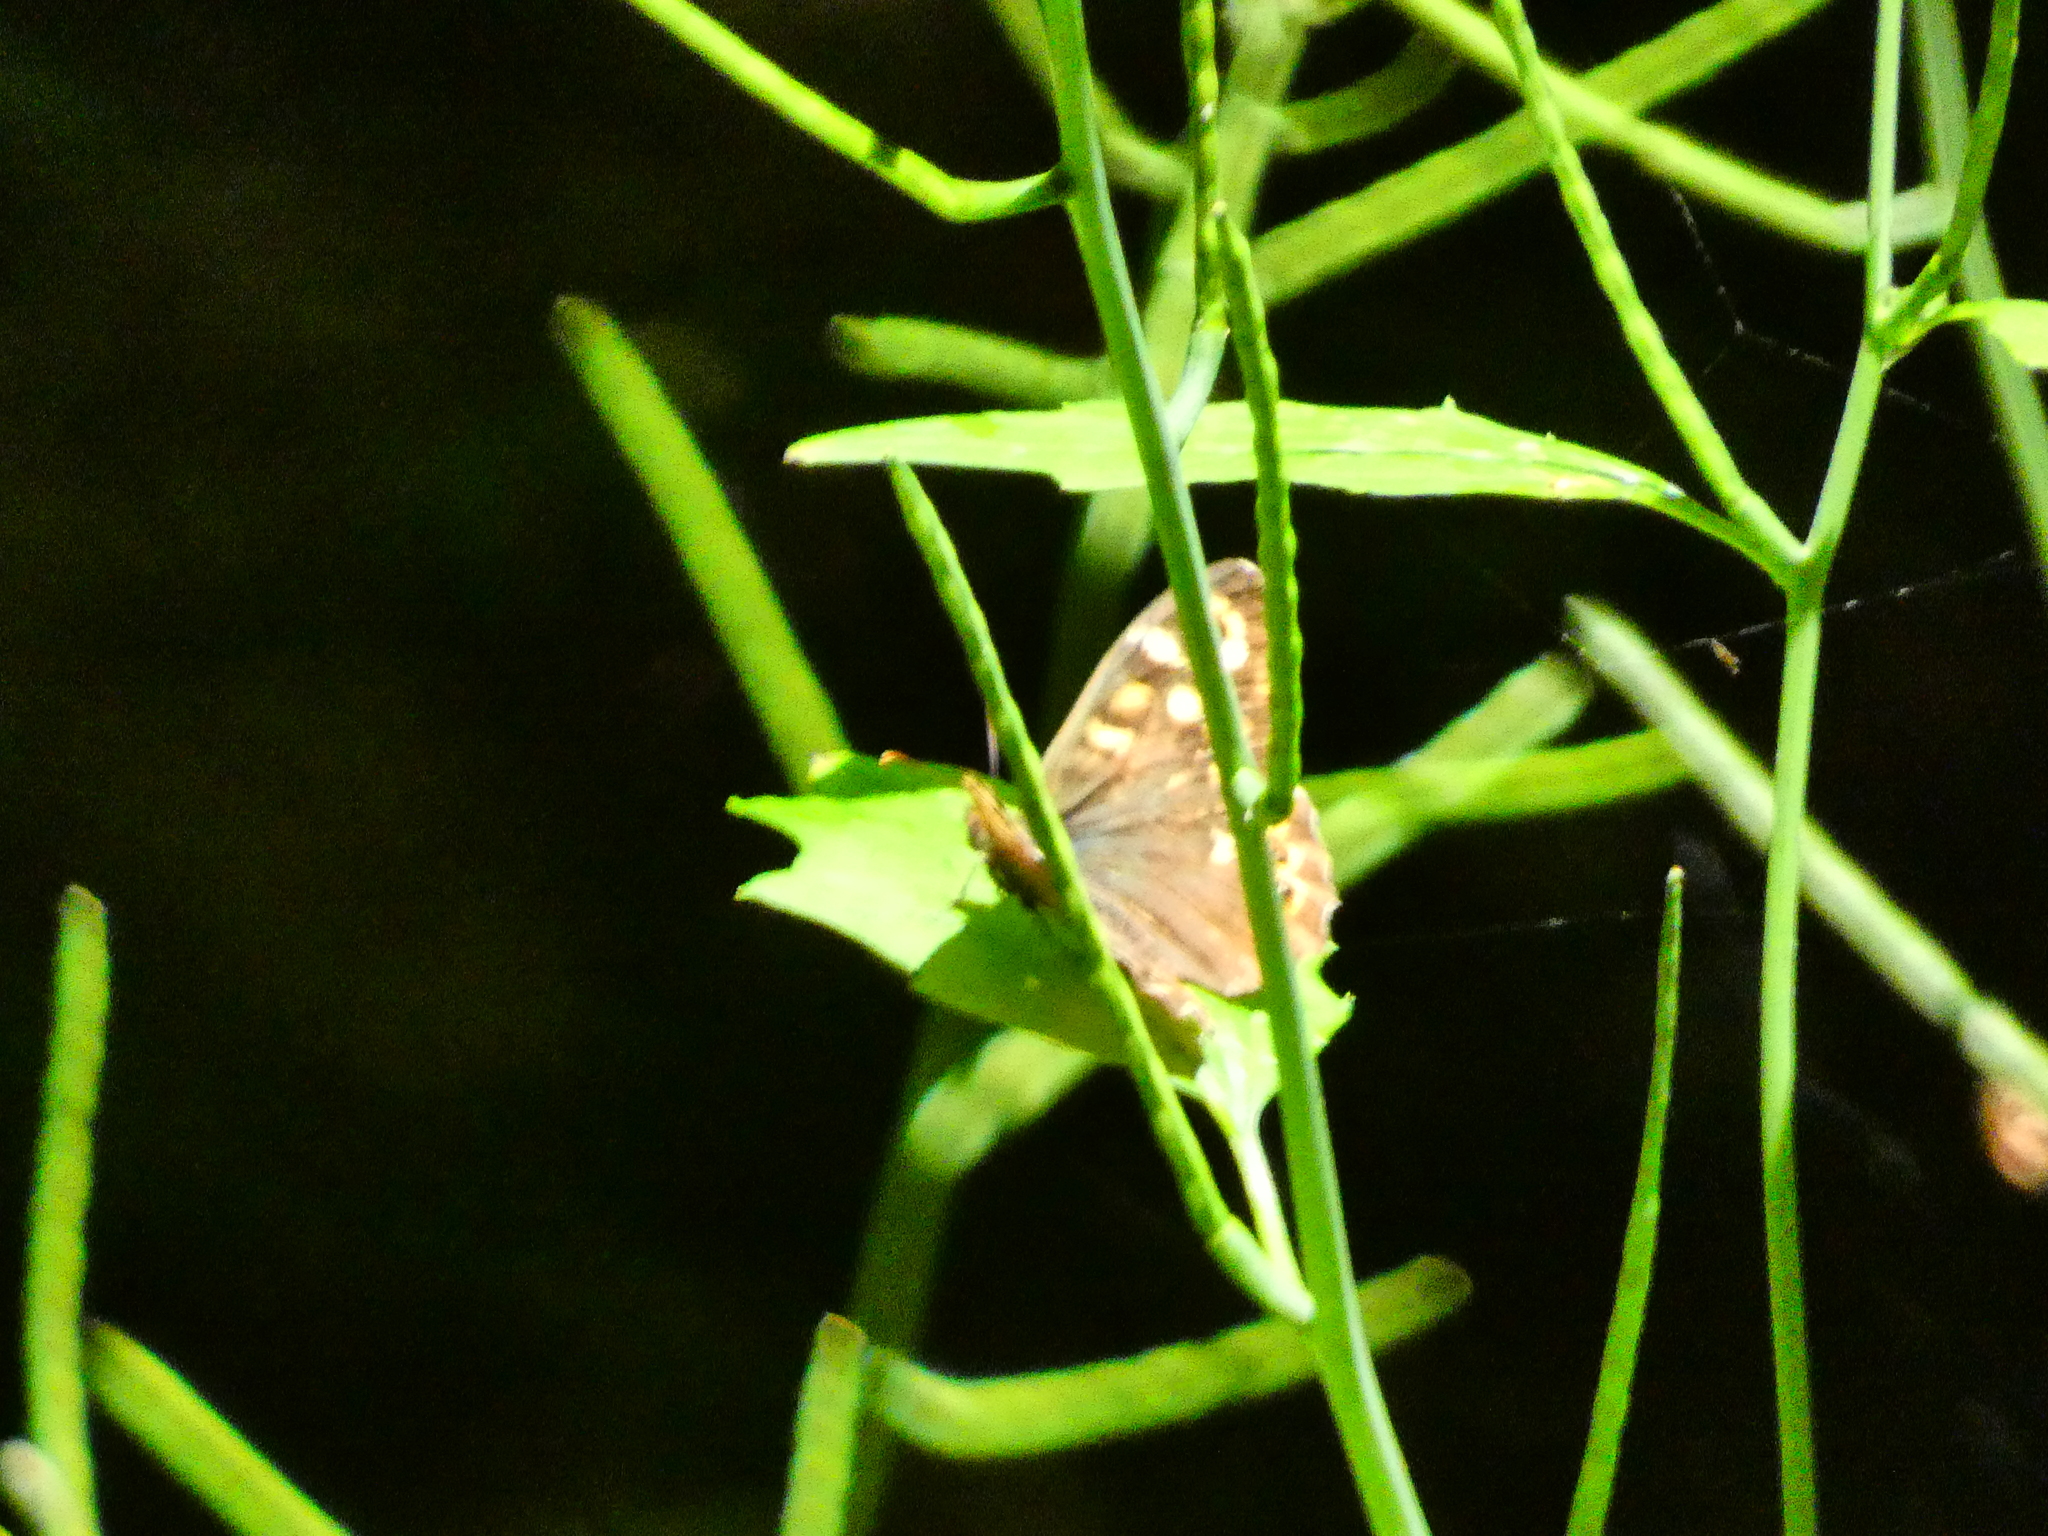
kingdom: Animalia
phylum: Arthropoda
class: Insecta
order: Lepidoptera
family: Nymphalidae
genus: Pararge
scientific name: Pararge aegeria
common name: Speckled wood
